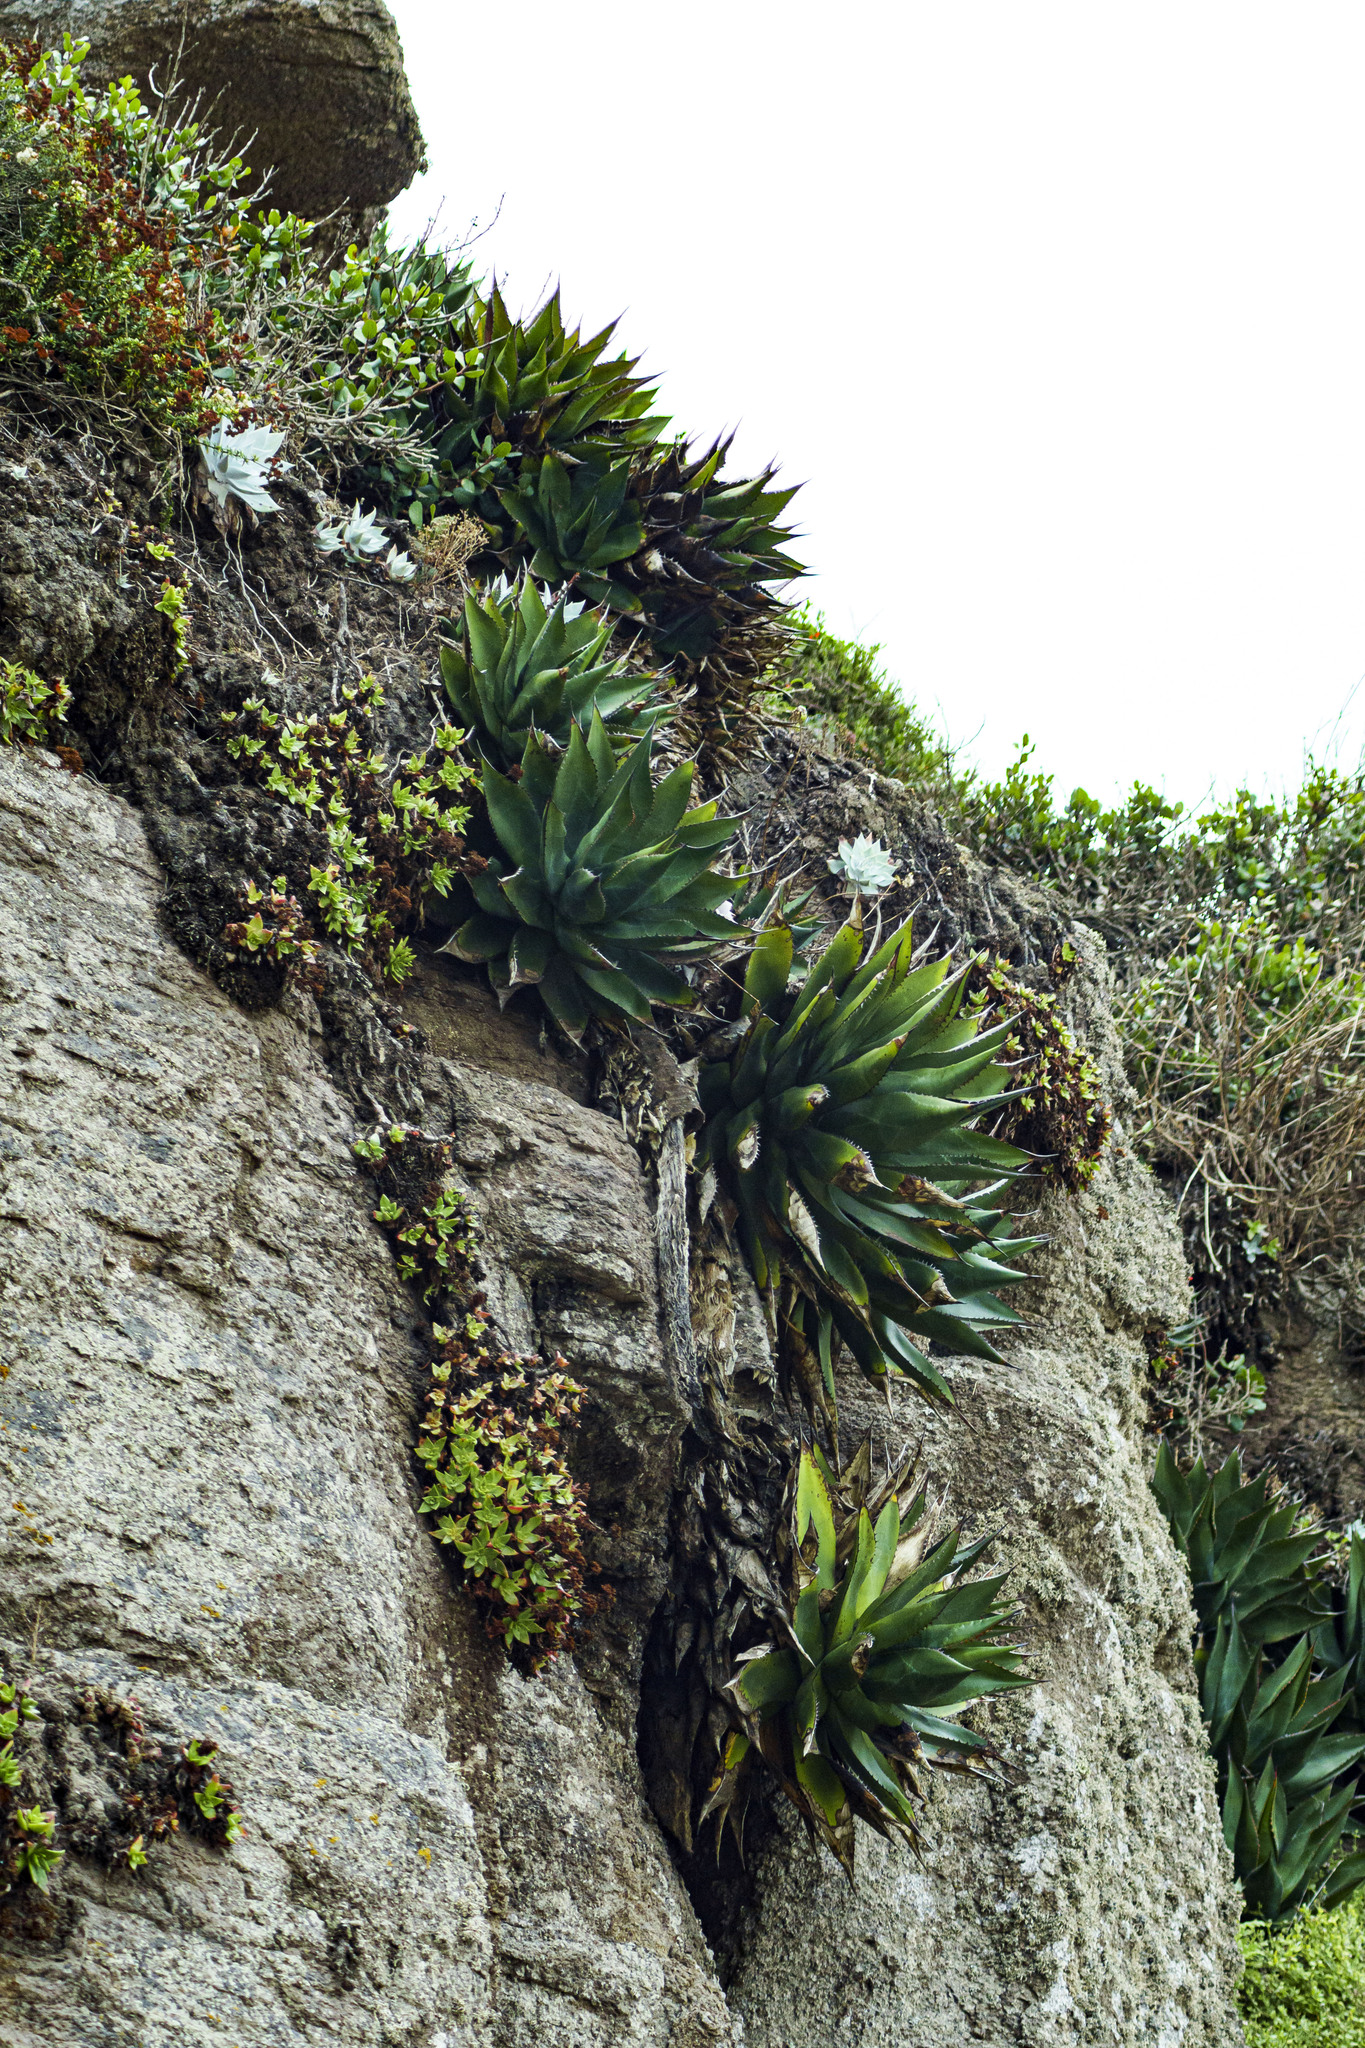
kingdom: Plantae
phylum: Tracheophyta
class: Magnoliopsida
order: Saxifragales
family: Crassulaceae
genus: Dudleya
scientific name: Dudleya formosa
